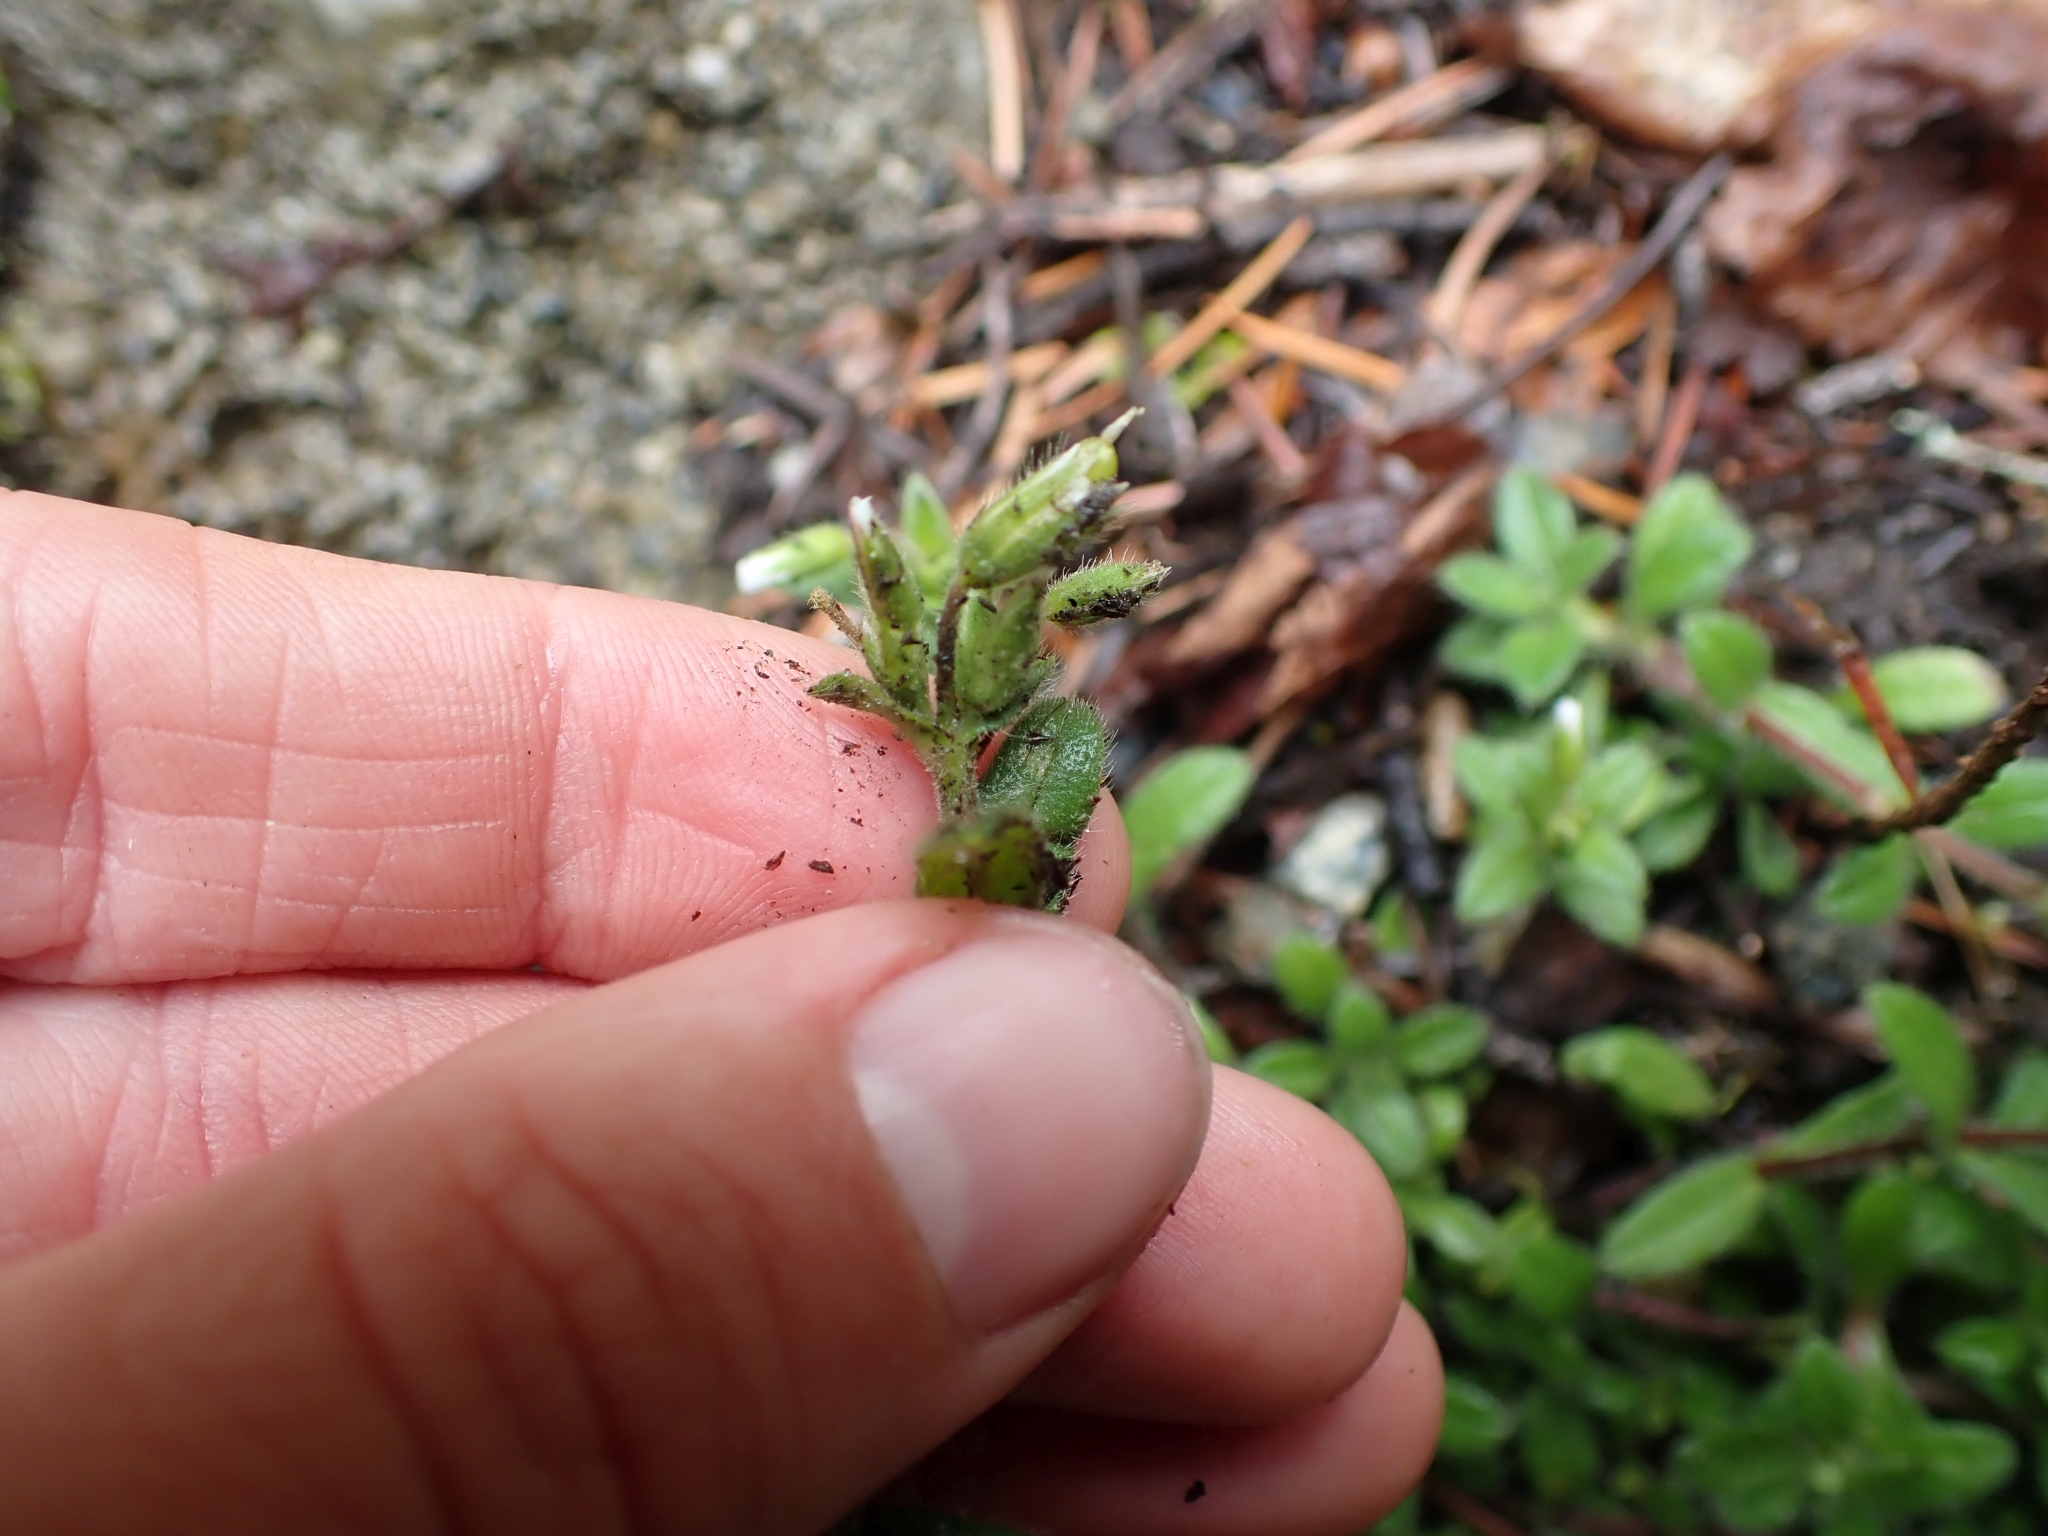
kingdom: Plantae
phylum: Tracheophyta
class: Magnoliopsida
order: Caryophyllales
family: Caryophyllaceae
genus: Cerastium
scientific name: Cerastium fontanum
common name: Common mouse-ear
